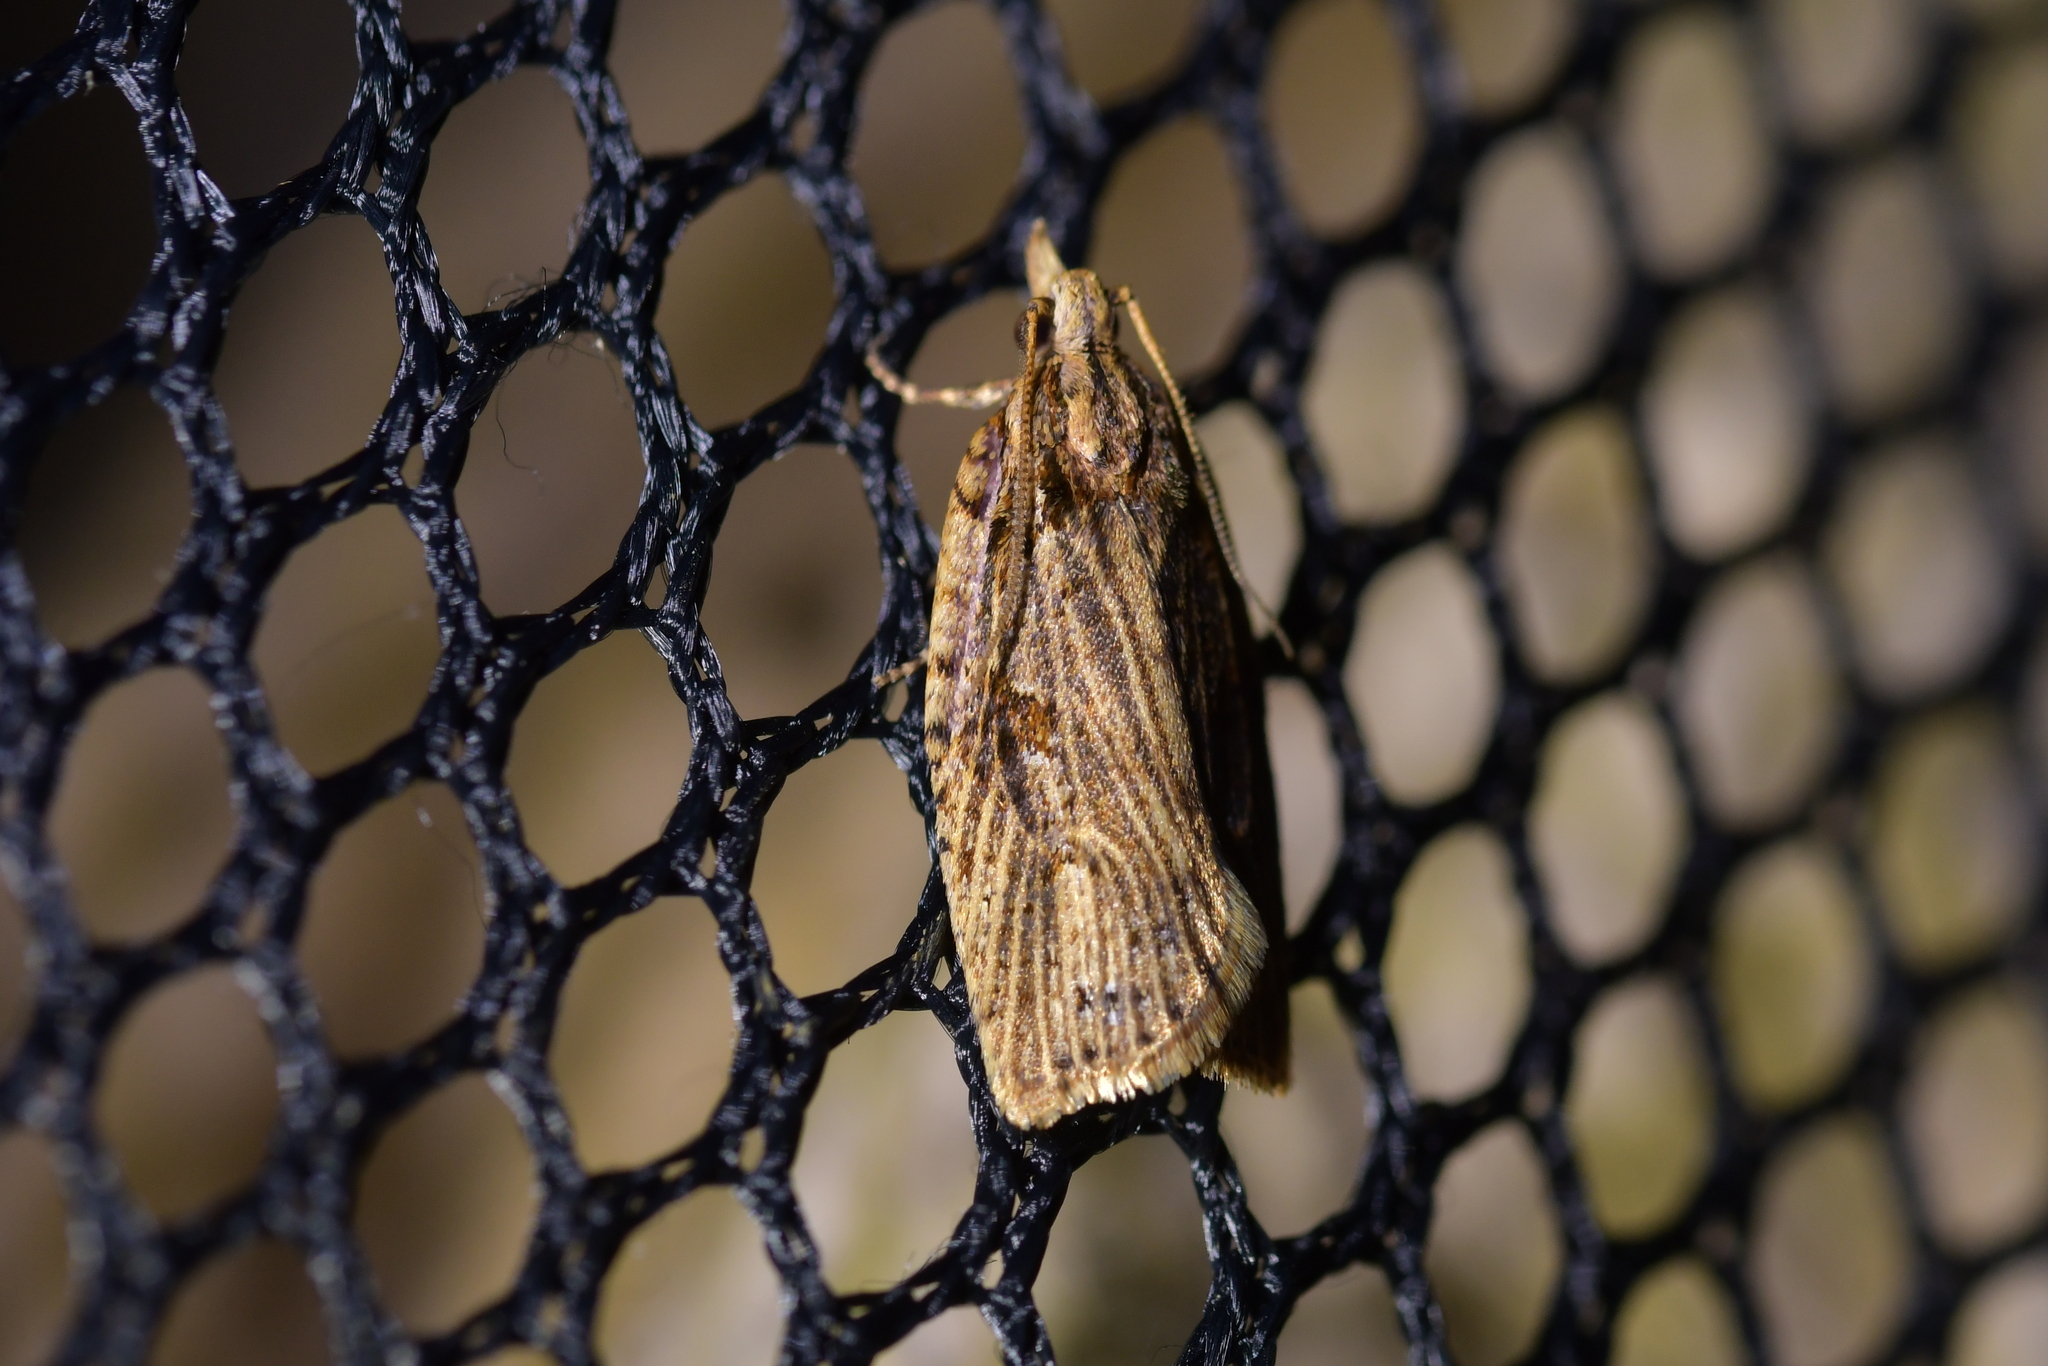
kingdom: Animalia
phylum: Arthropoda
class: Insecta
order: Lepidoptera
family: Tortricidae
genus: Planotortrix
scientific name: Planotortrix notophaea
